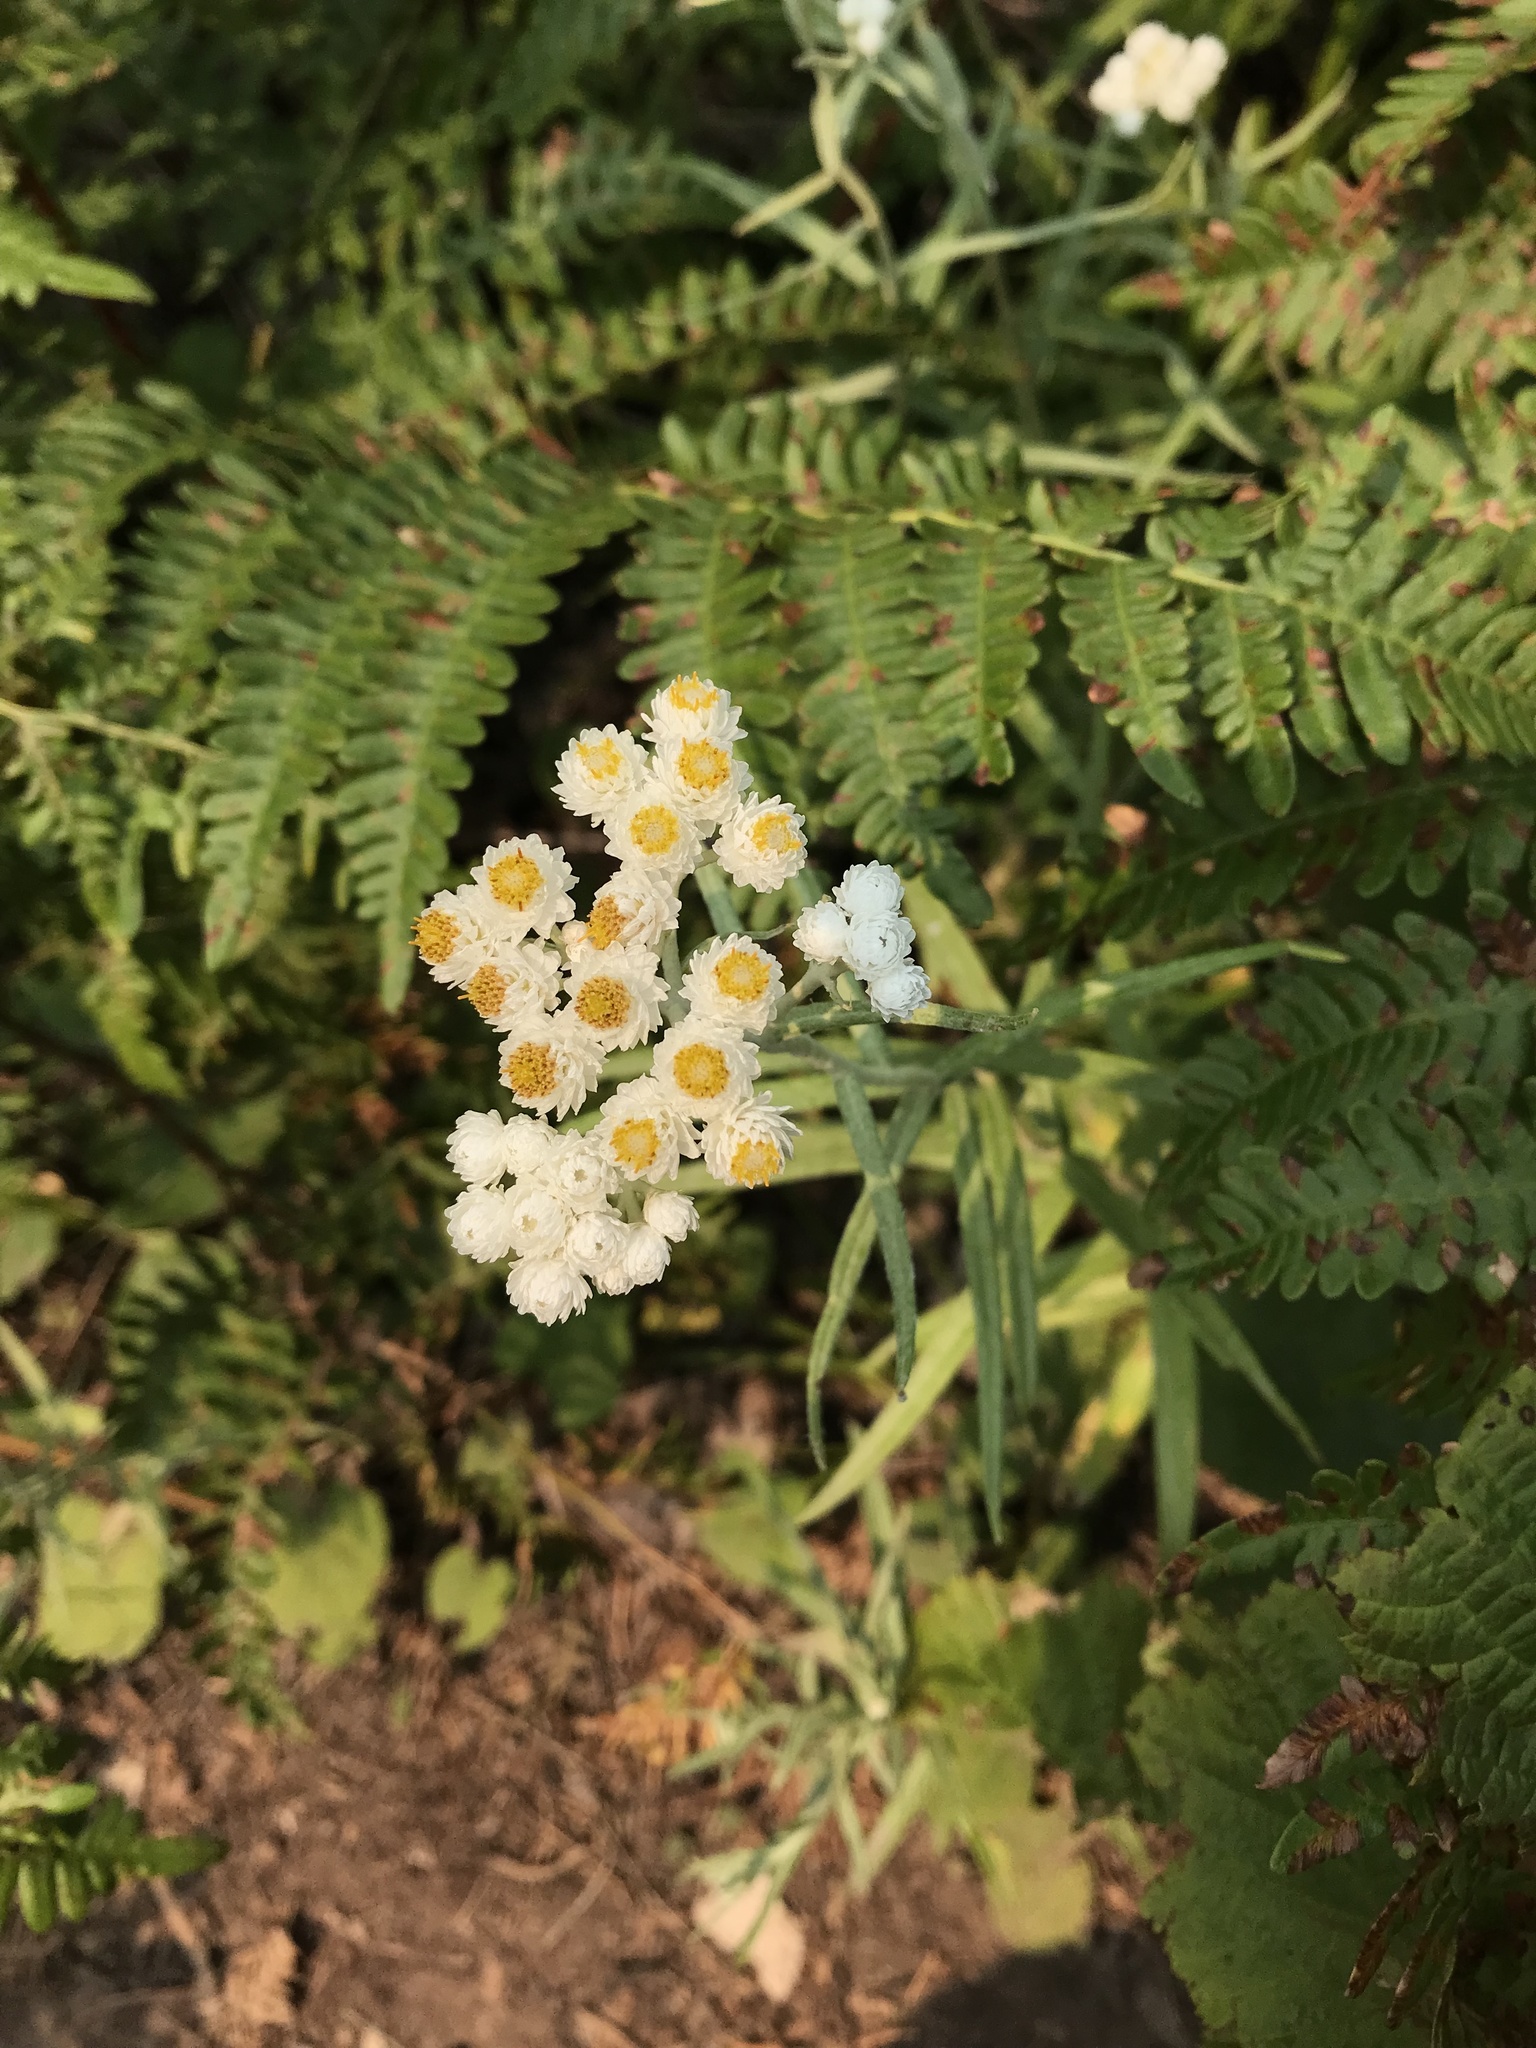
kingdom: Plantae
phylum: Tracheophyta
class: Magnoliopsida
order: Asterales
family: Asteraceae
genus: Anaphalis
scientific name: Anaphalis margaritacea
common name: Pearly everlasting
